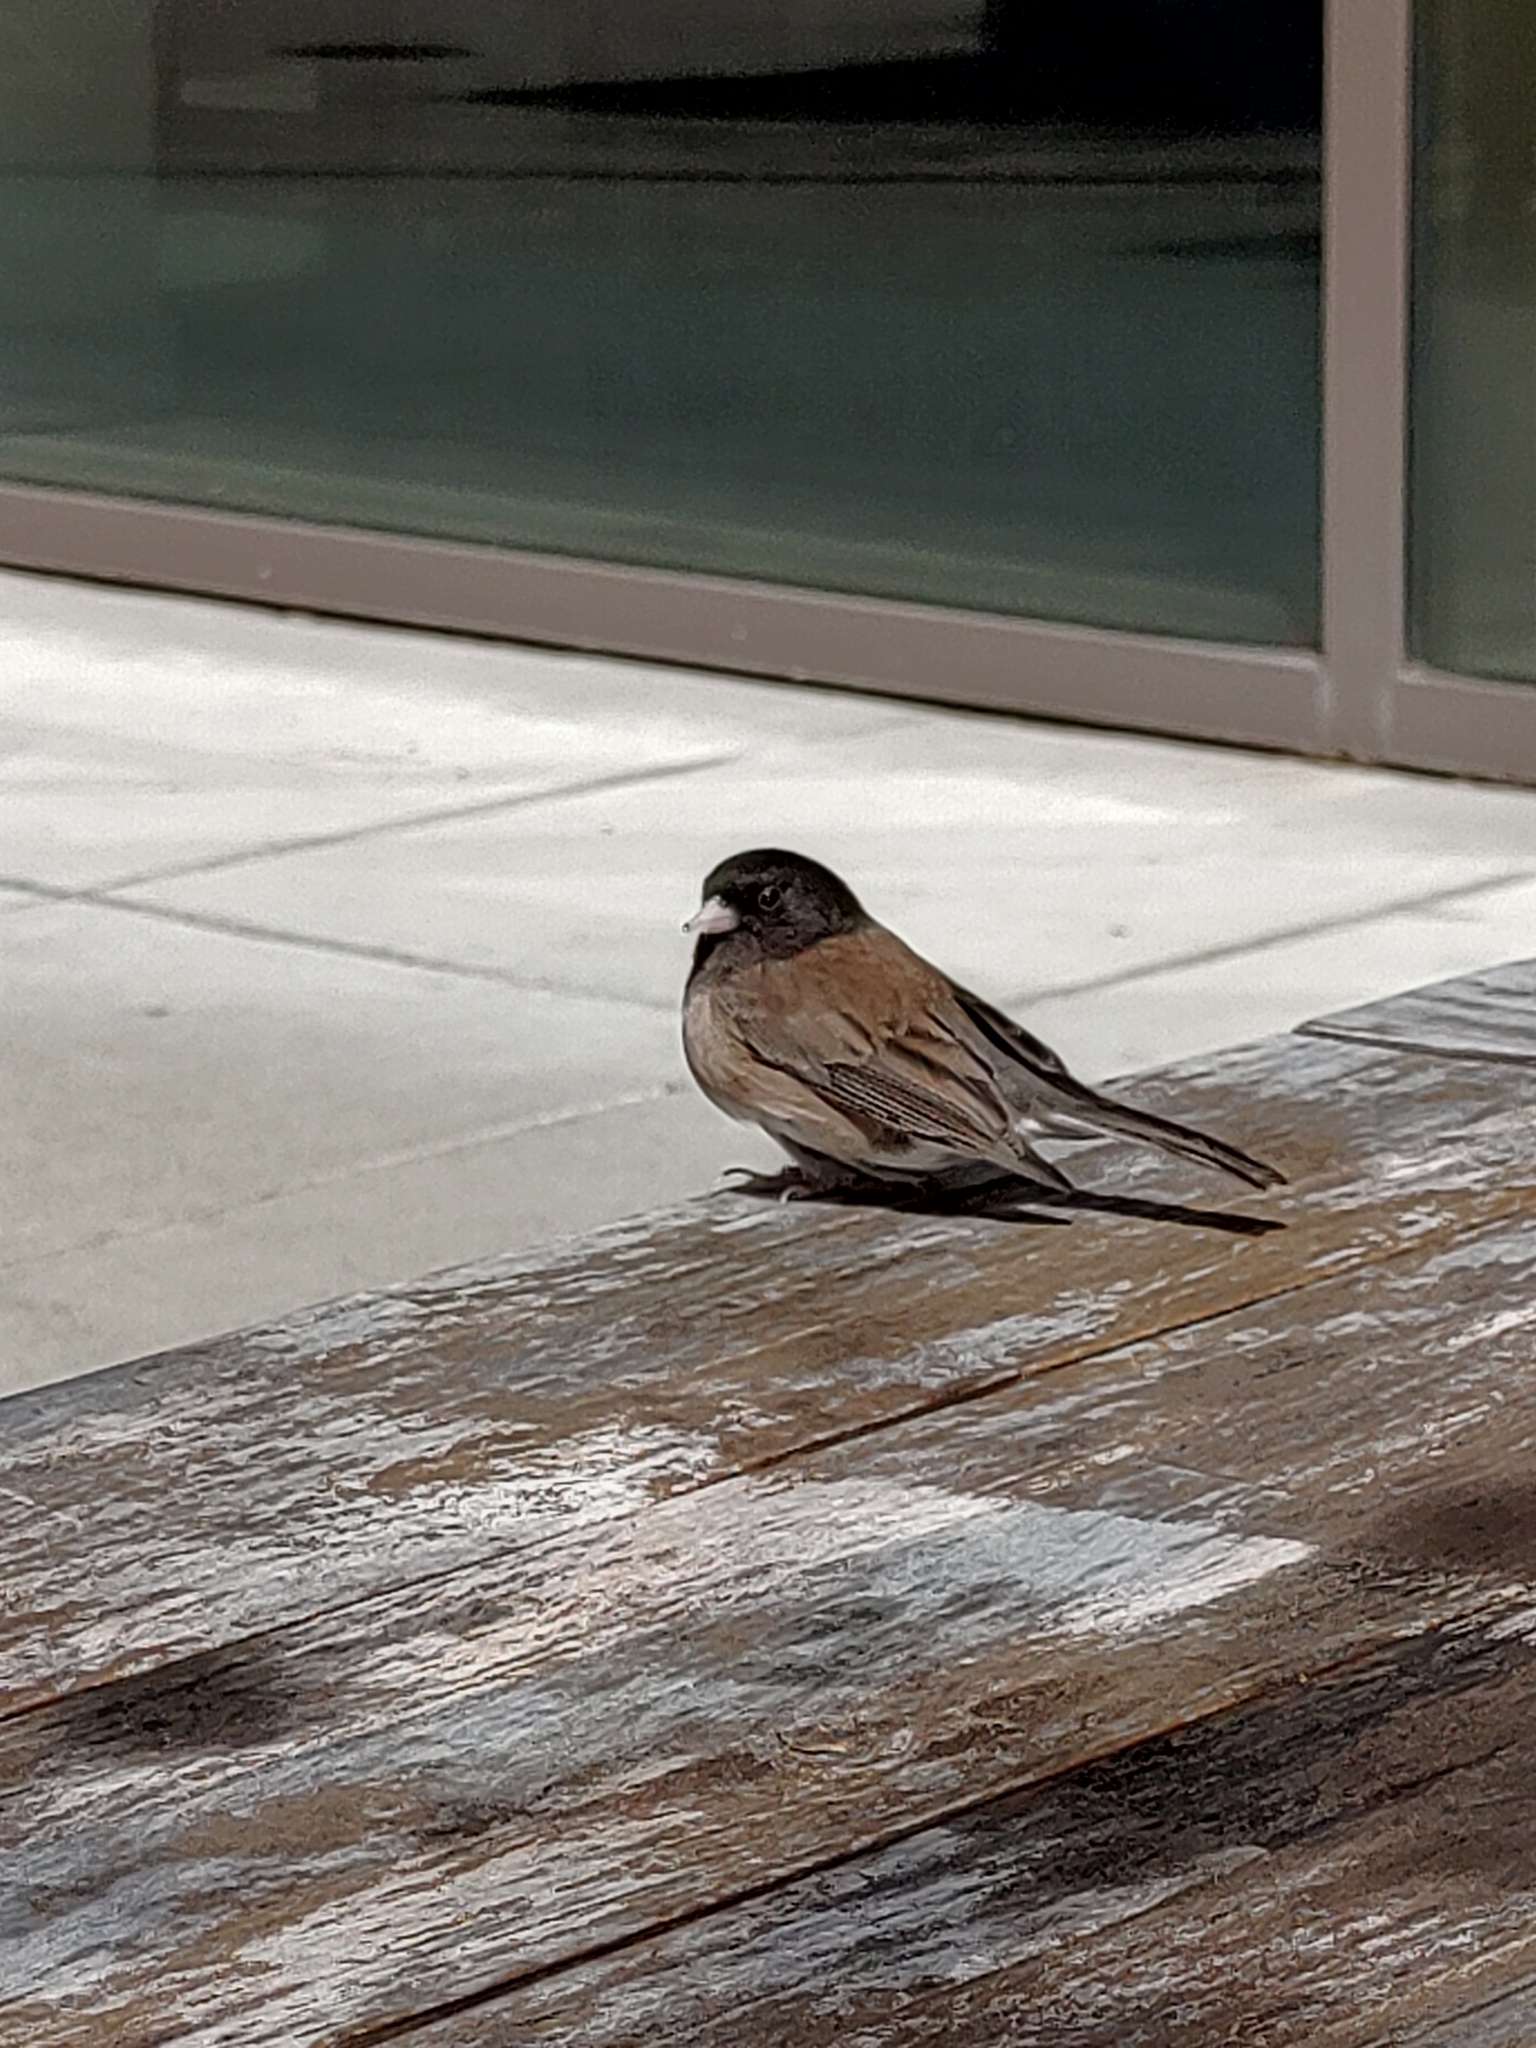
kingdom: Animalia
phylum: Chordata
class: Aves
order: Passeriformes
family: Passerellidae
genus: Junco
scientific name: Junco hyemalis
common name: Dark-eyed junco
